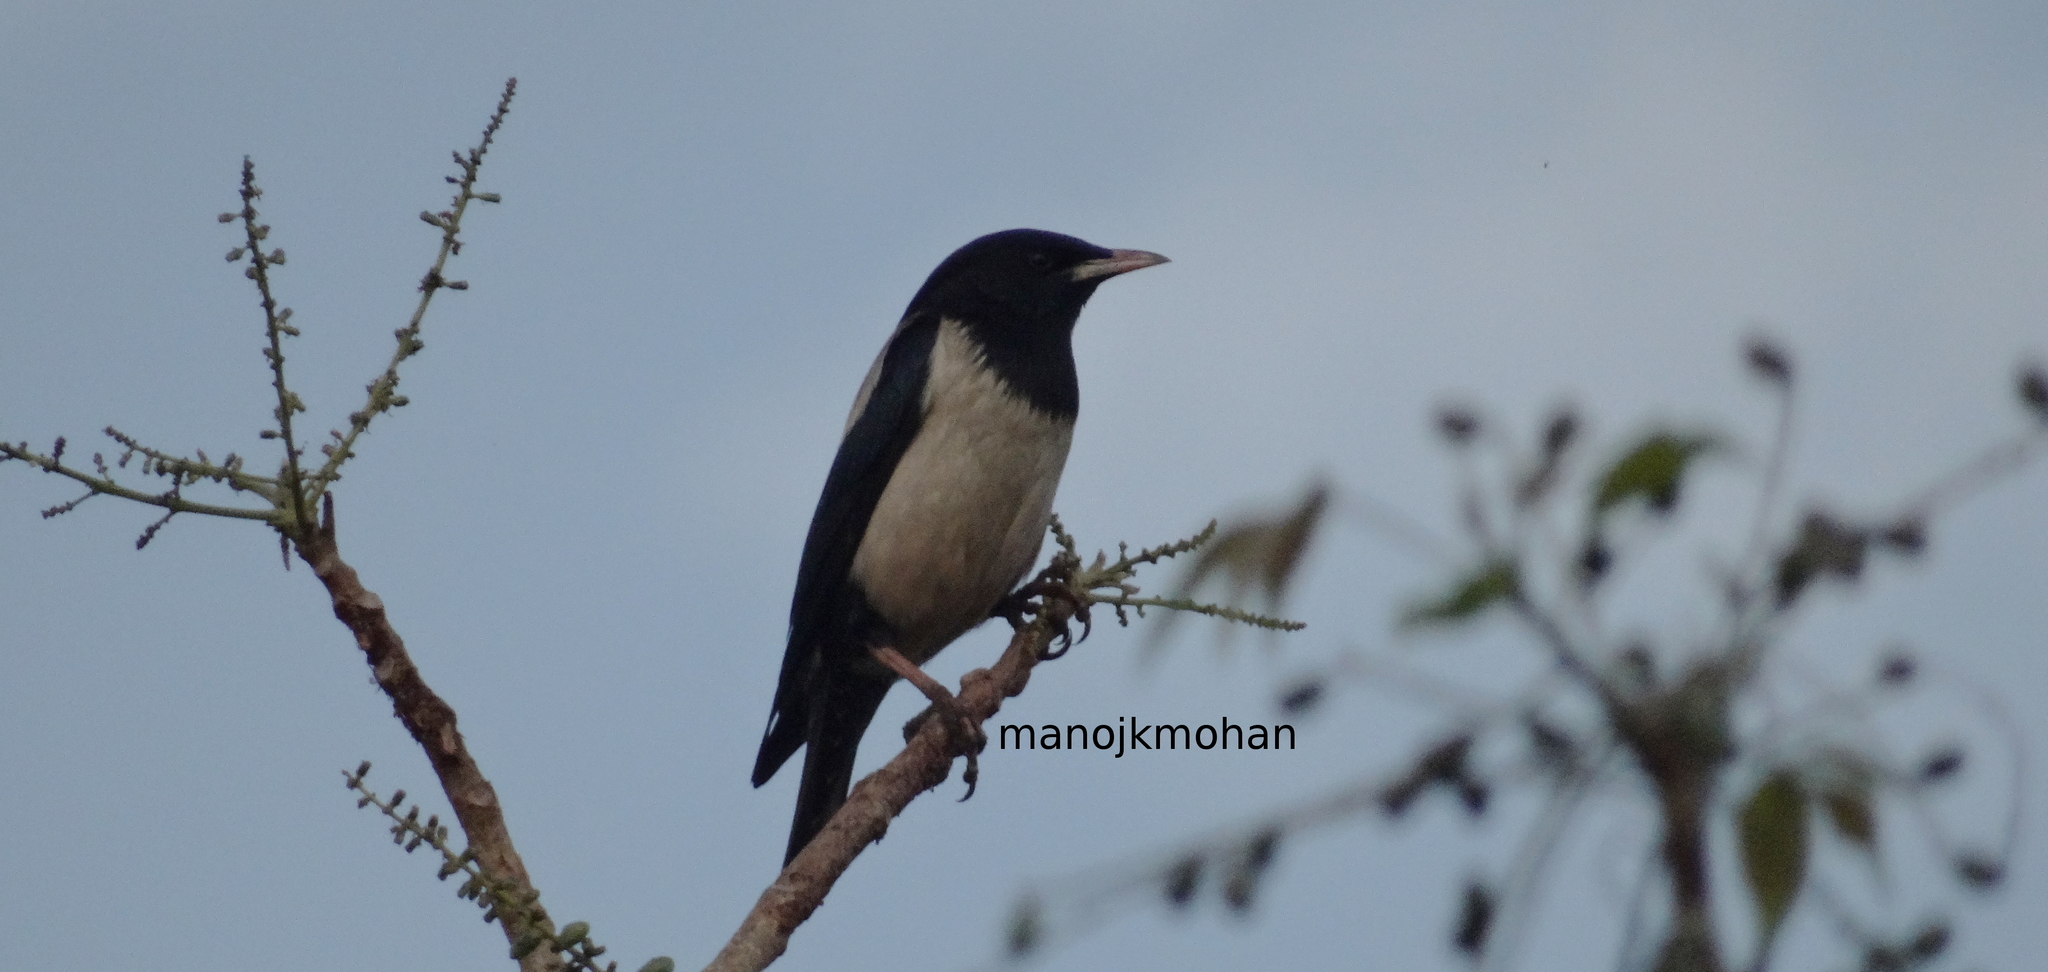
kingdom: Animalia
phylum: Chordata
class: Aves
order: Passeriformes
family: Sturnidae
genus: Pastor
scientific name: Pastor roseus
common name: Rosy starling
